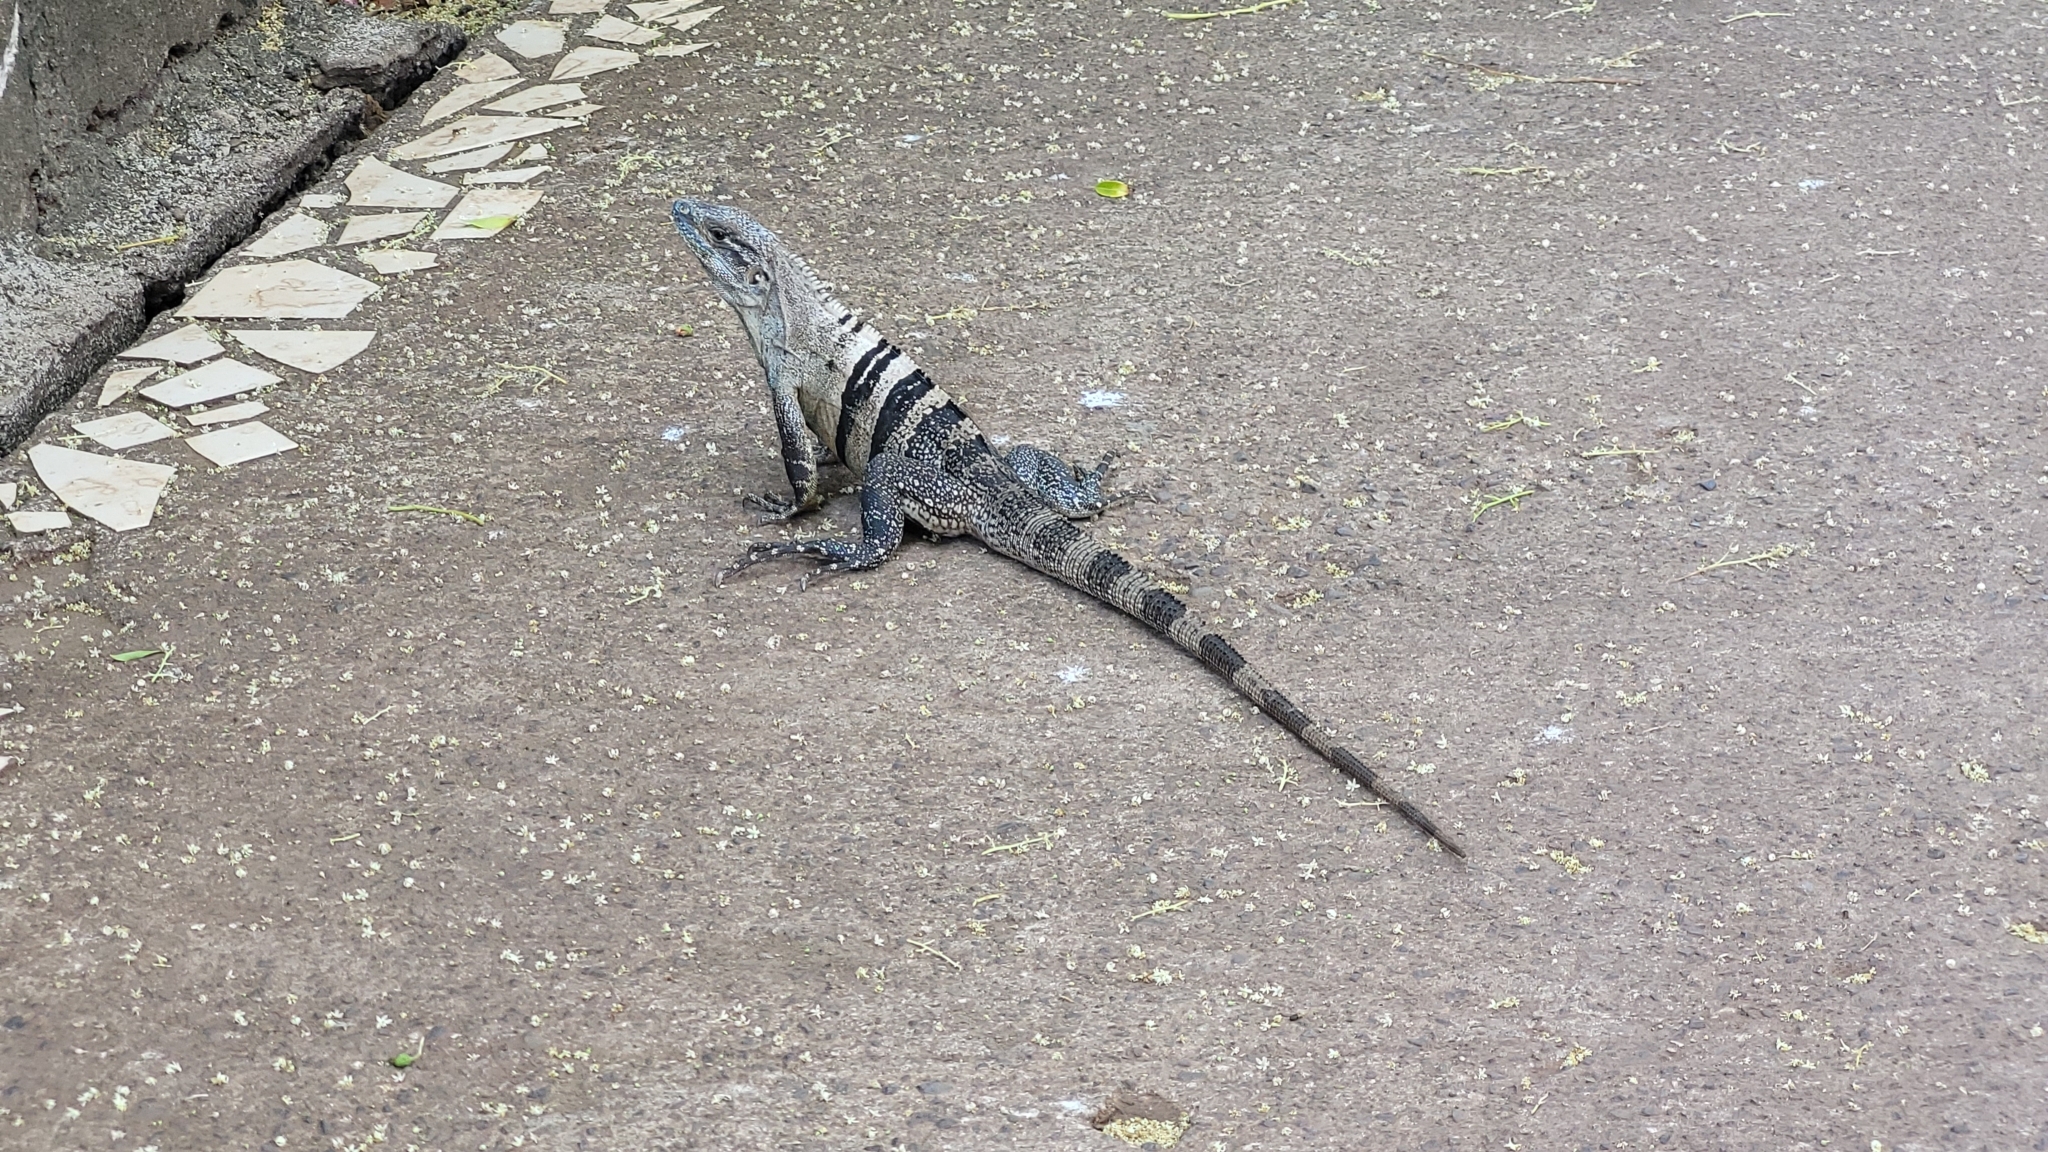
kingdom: Animalia
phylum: Chordata
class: Squamata
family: Iguanidae
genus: Ctenosaura
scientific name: Ctenosaura similis
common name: Black spiny-tailed iguana
